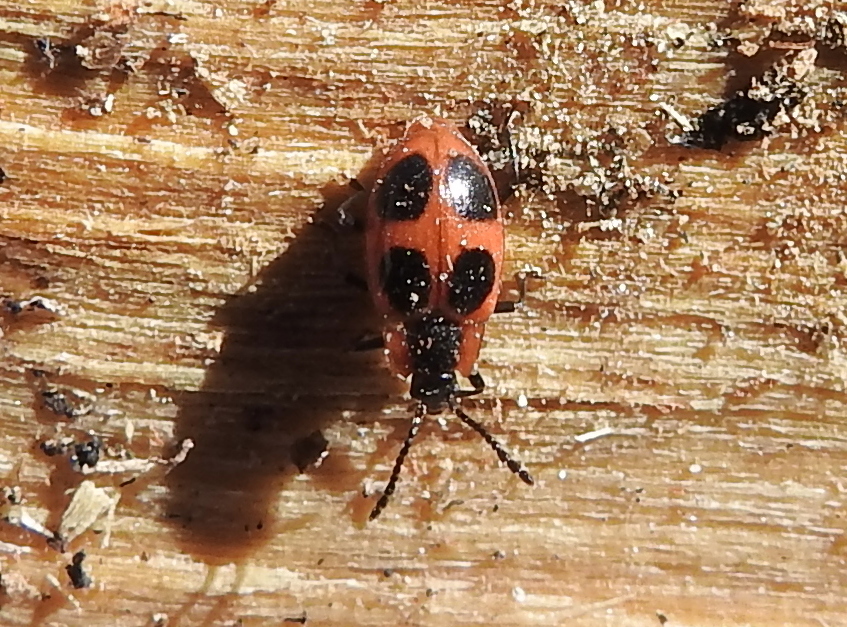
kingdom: Animalia
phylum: Arthropoda
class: Insecta
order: Coleoptera
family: Endomychidae
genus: Endomychus
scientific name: Endomychus coccineus
